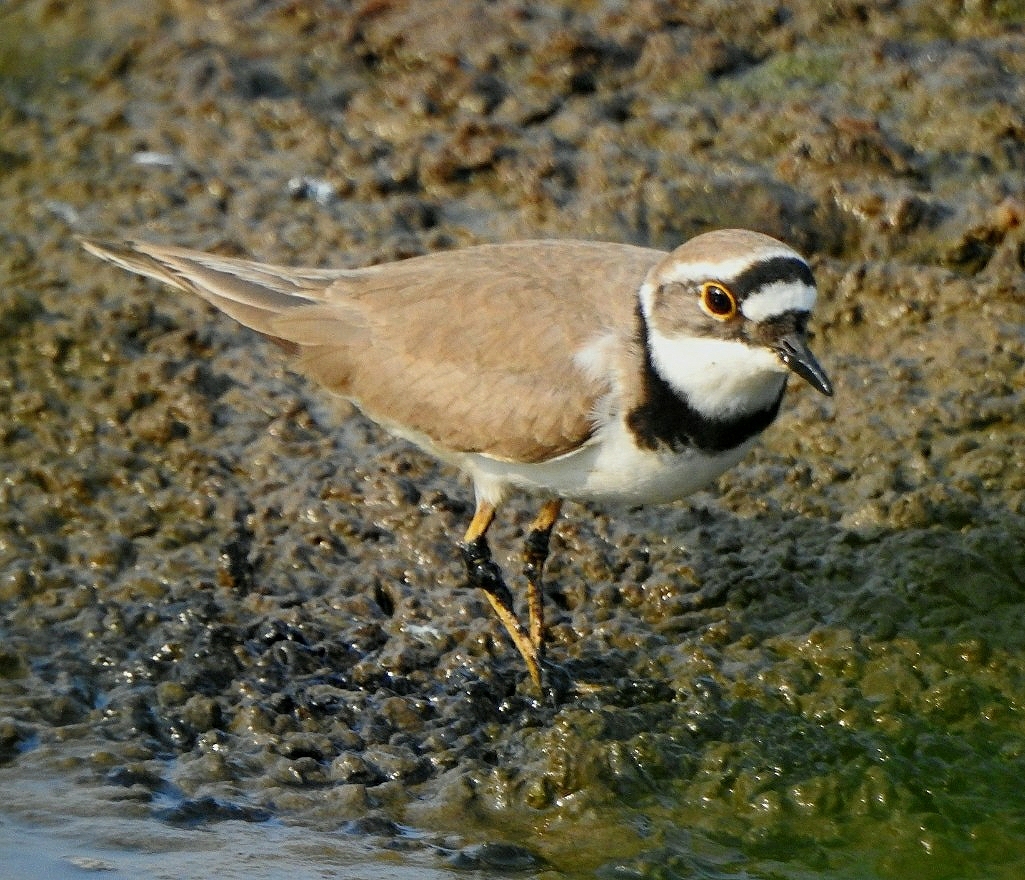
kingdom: Animalia
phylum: Chordata
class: Aves
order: Charadriiformes
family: Charadriidae
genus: Charadrius
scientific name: Charadrius dubius
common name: Little ringed plover
